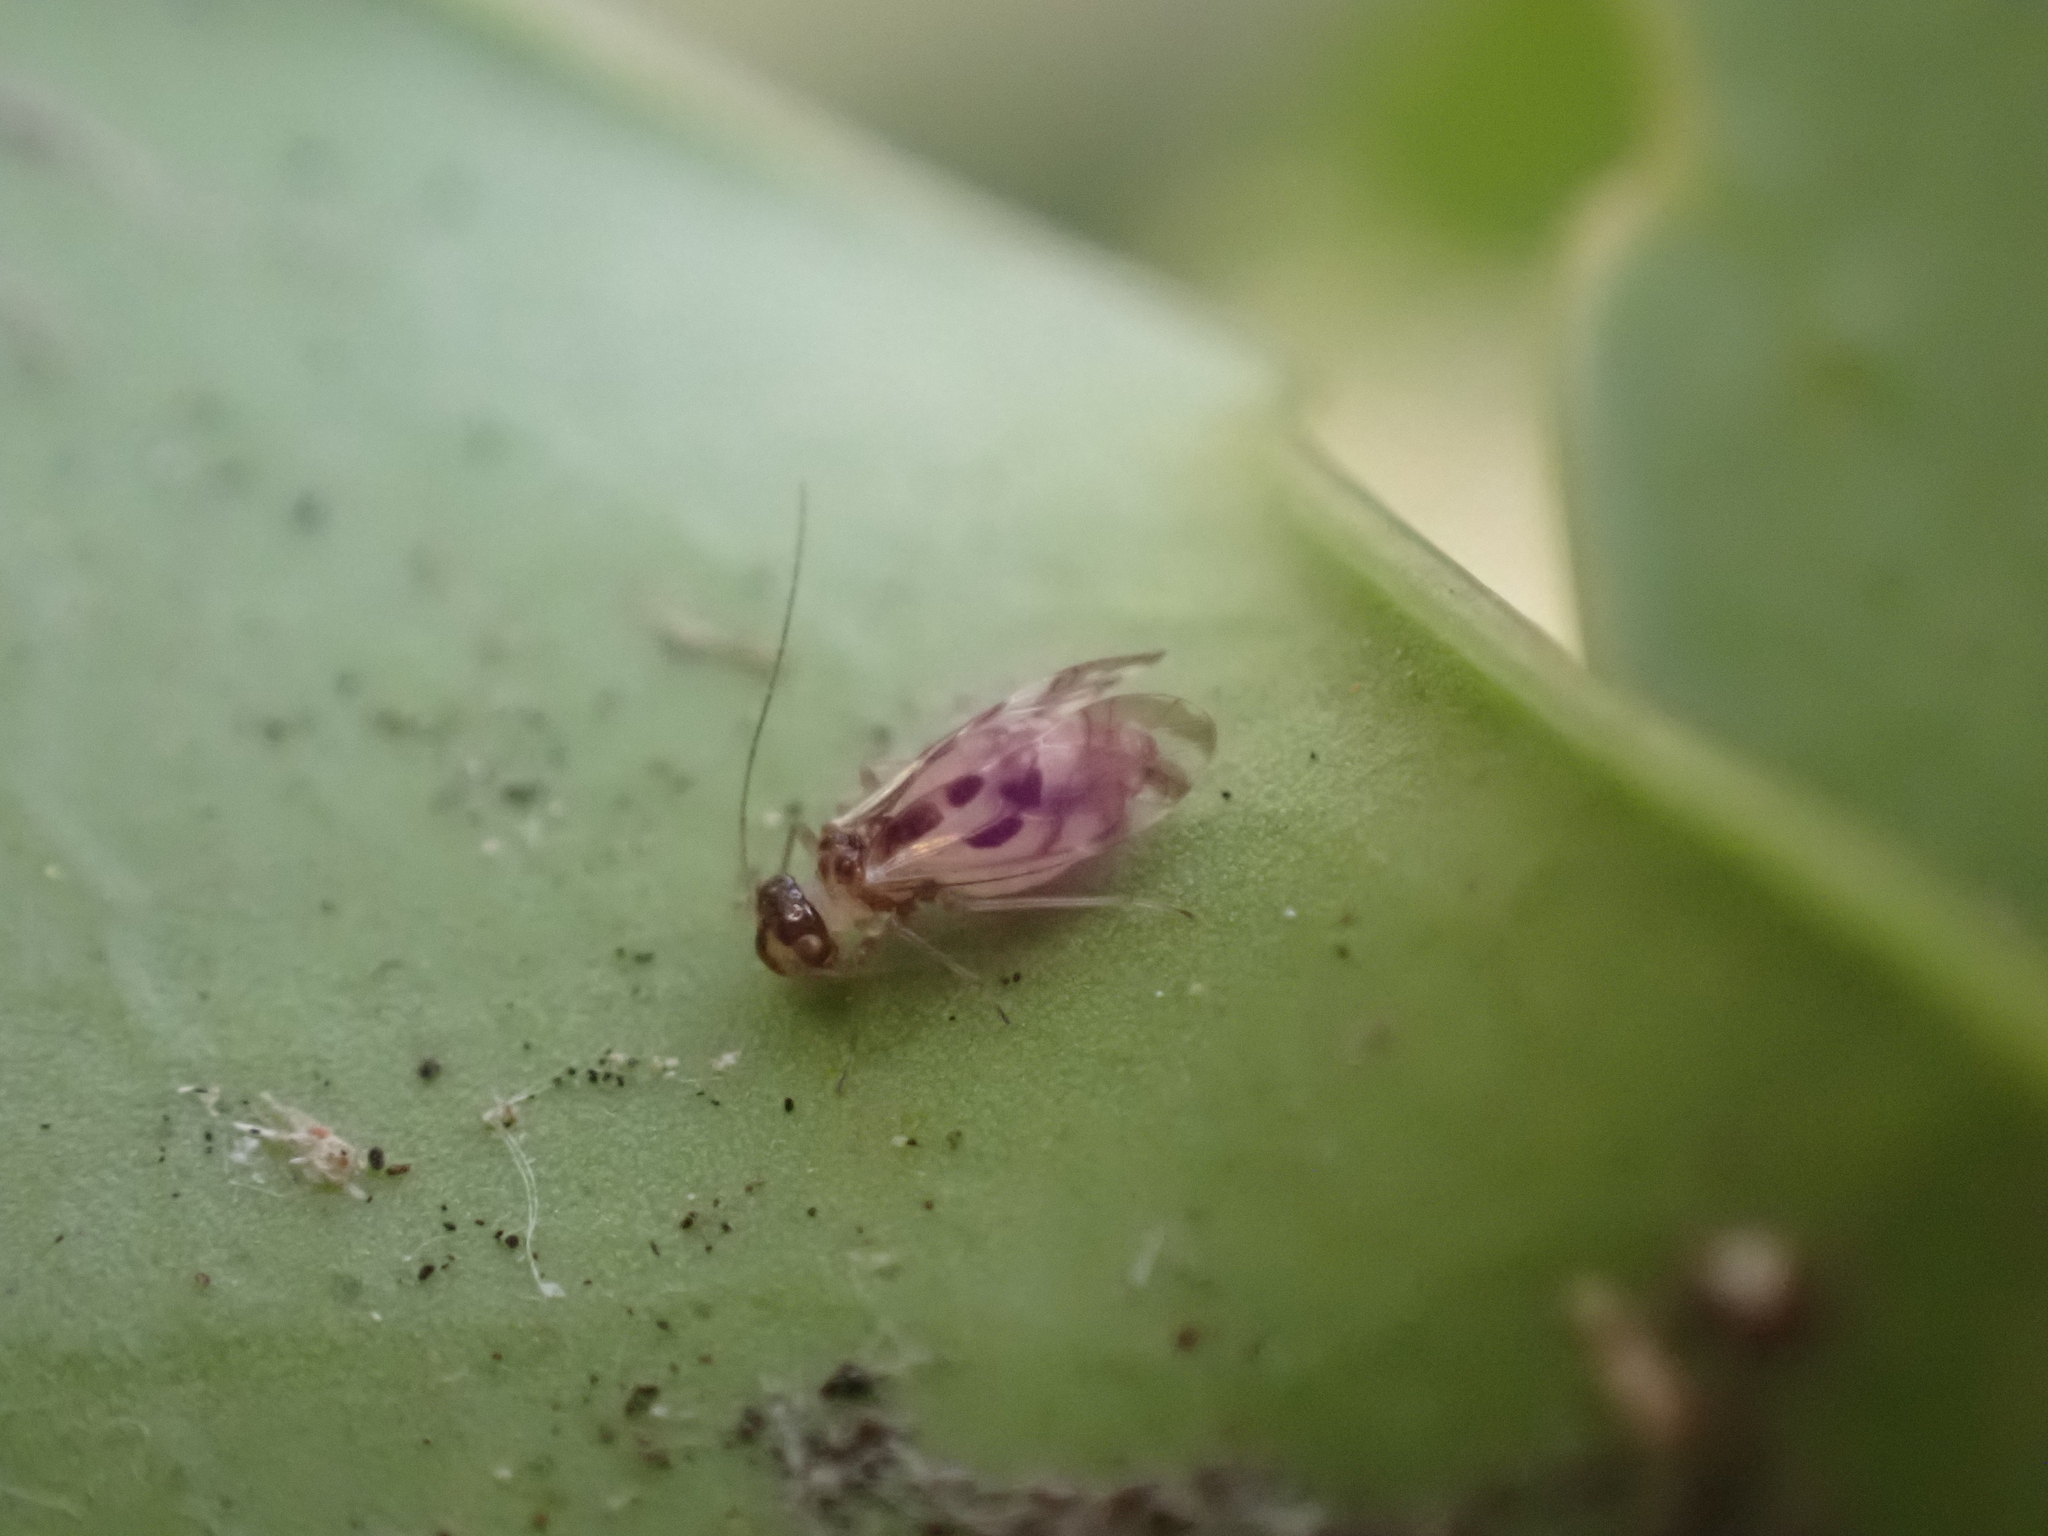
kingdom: Animalia
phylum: Arthropoda
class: Insecta
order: Psocodea
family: Stenopsocidae
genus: Graphopsocus
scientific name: Graphopsocus cruciatus
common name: Lizard bark louse
